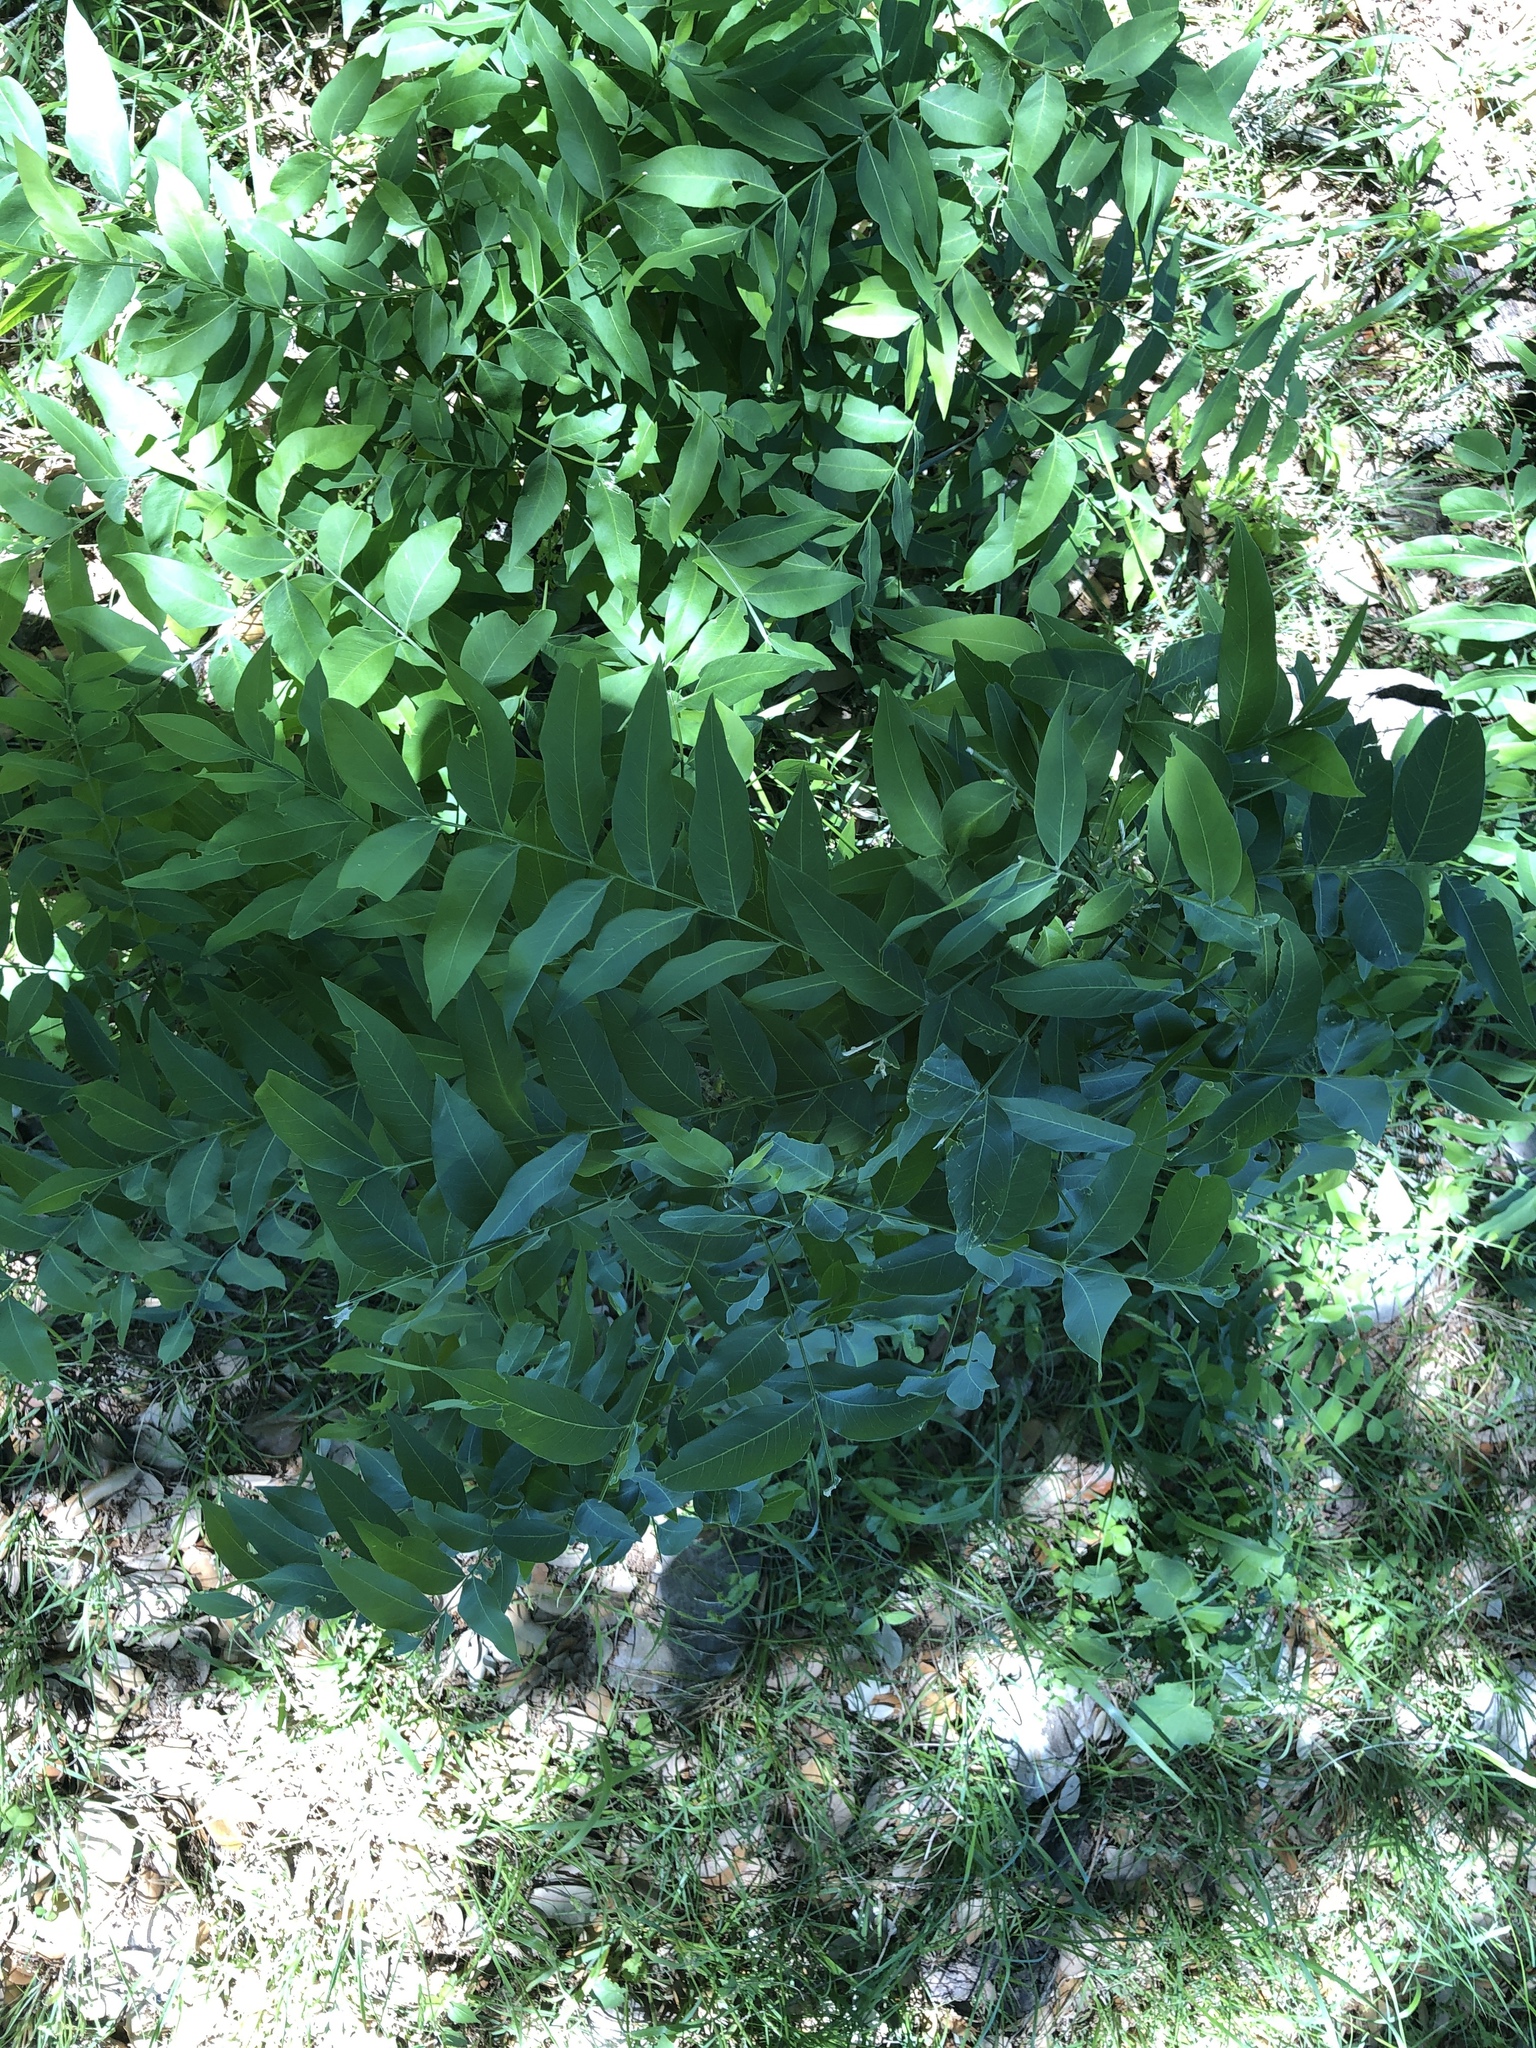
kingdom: Plantae
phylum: Tracheophyta
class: Magnoliopsida
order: Sapindales
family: Sapindaceae
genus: Sapindus
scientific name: Sapindus drummondii
